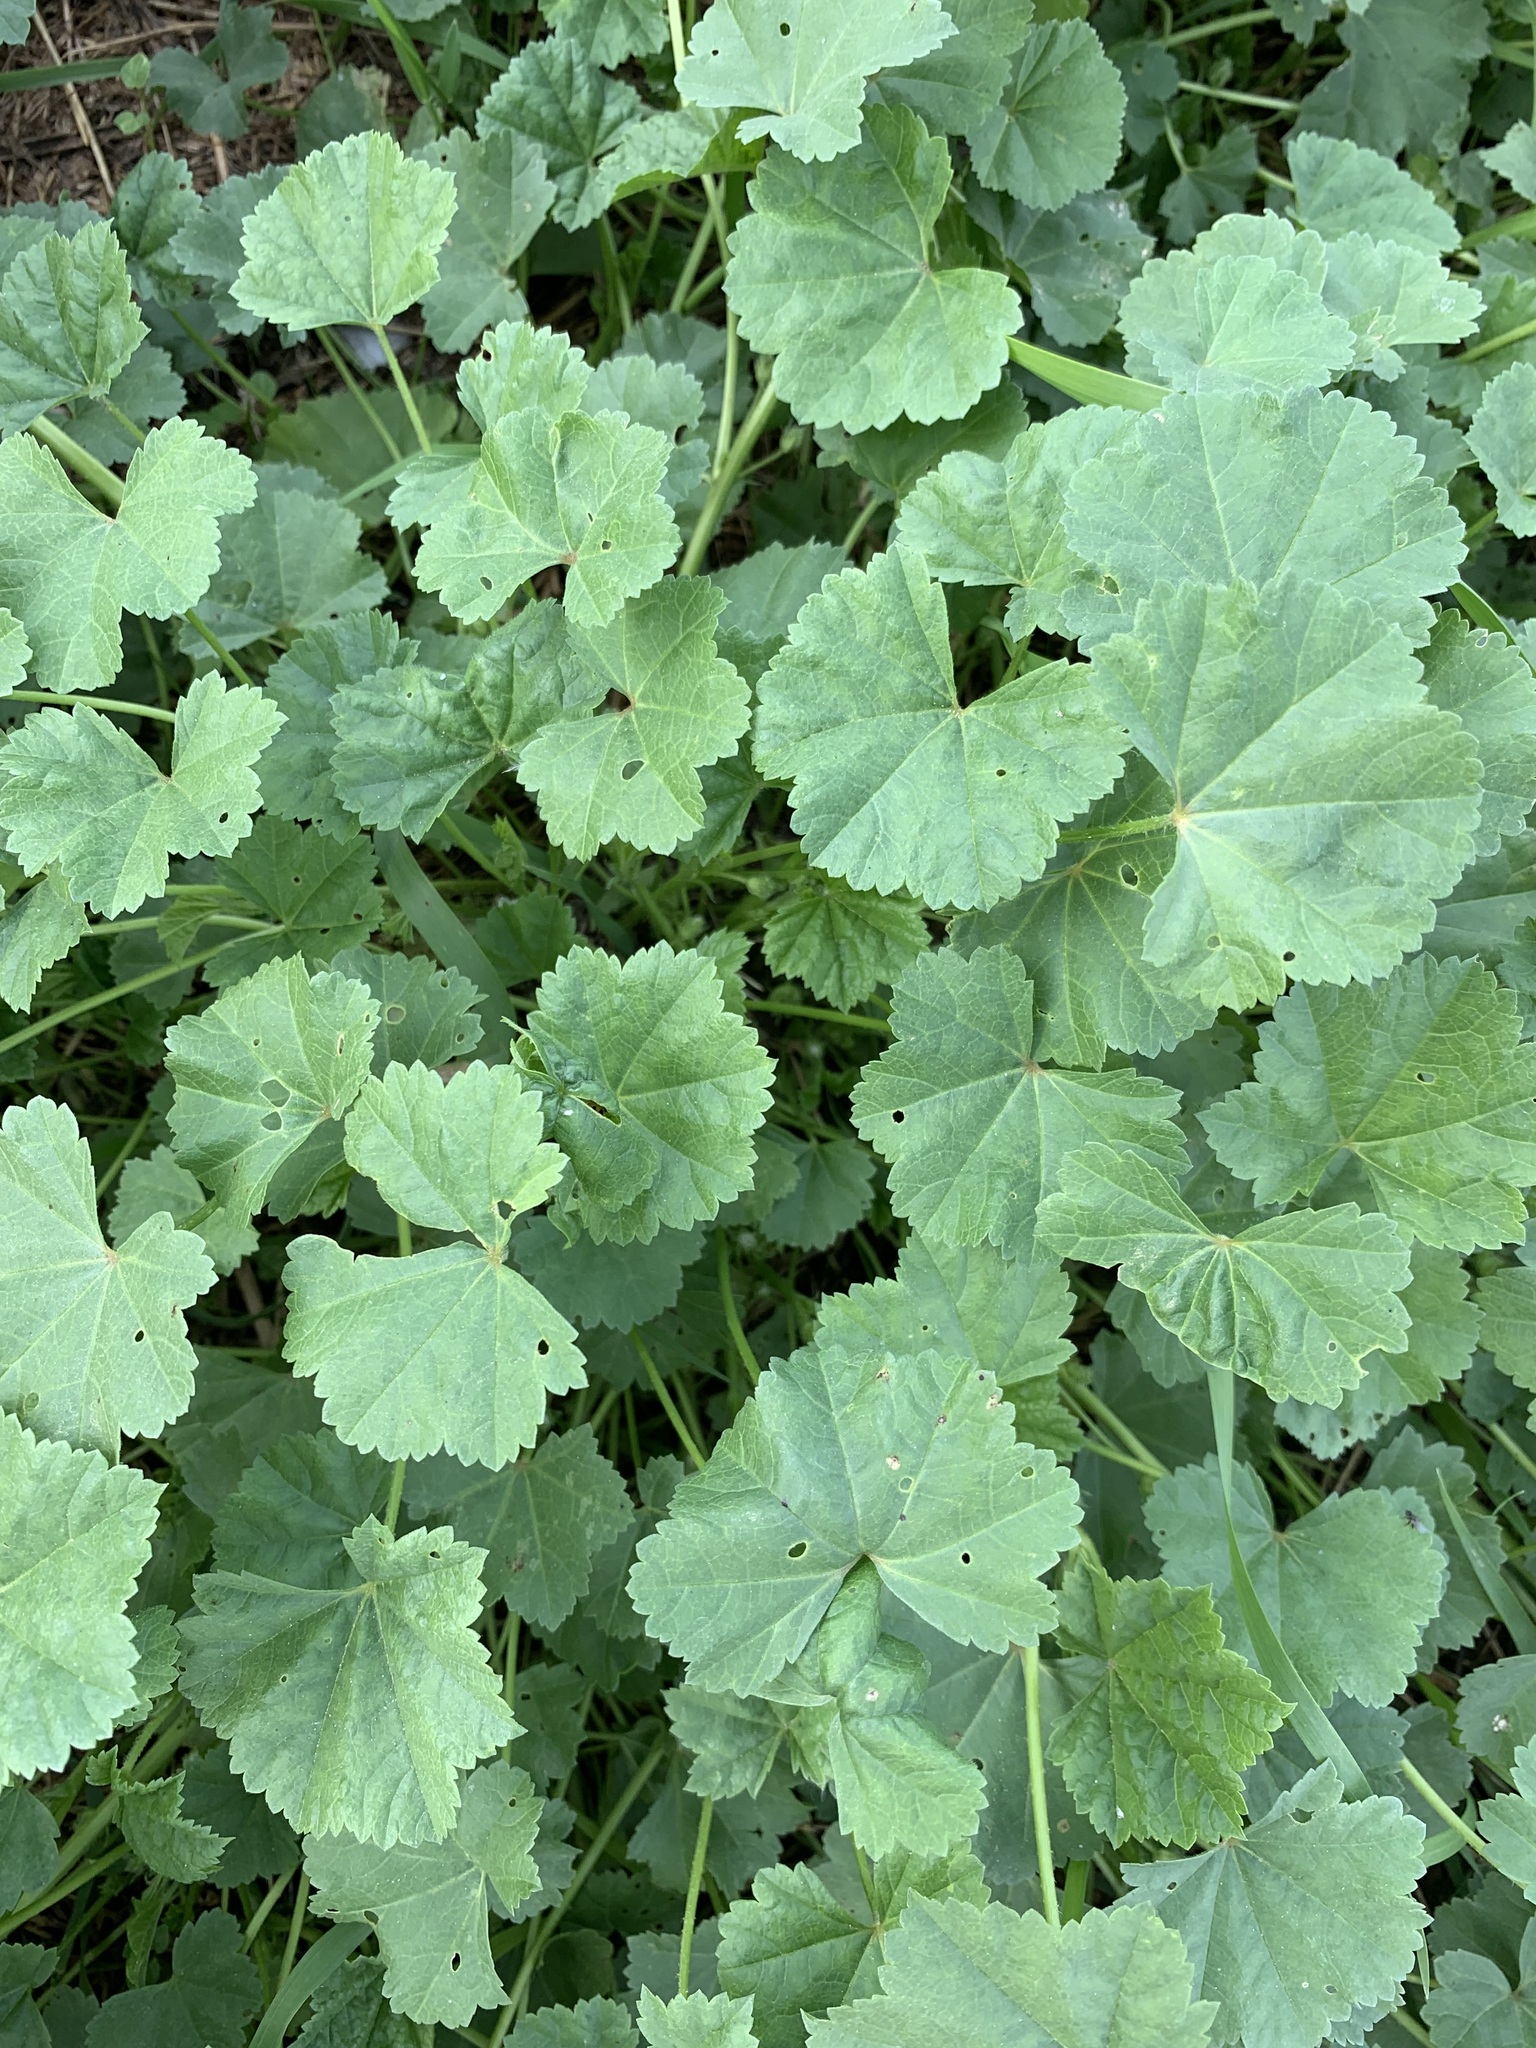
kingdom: Plantae
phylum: Tracheophyta
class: Magnoliopsida
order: Malvales
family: Malvaceae
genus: Malva
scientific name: Malva pusilla
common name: Small mallow
